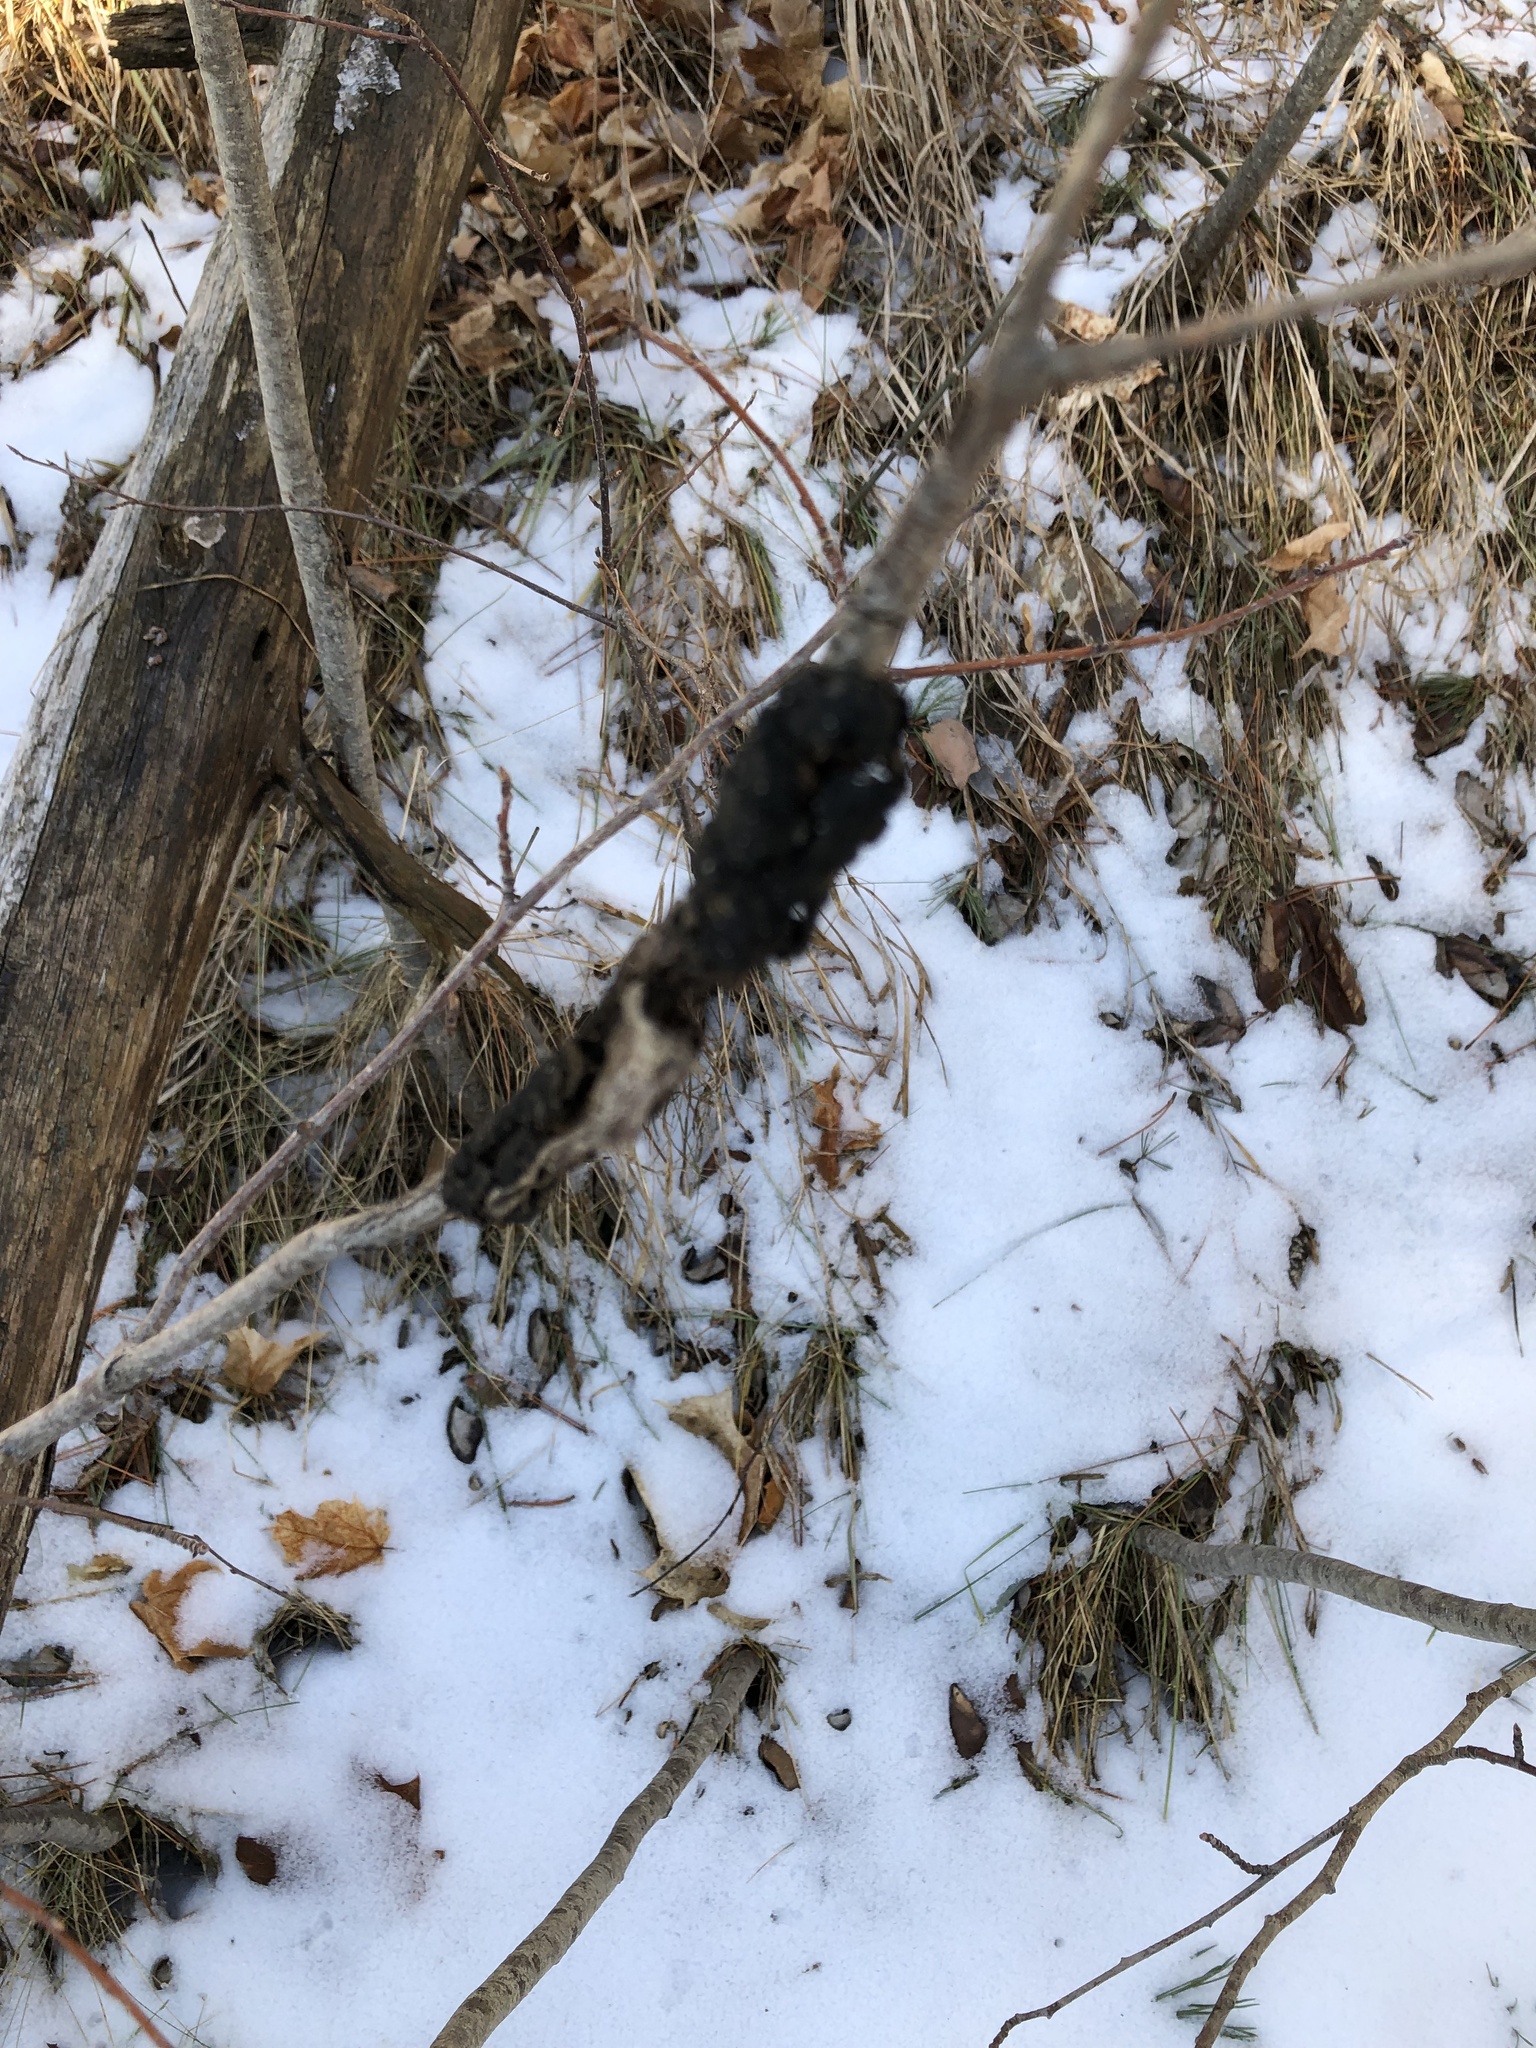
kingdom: Fungi
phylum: Ascomycota
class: Dothideomycetes
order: Venturiales
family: Venturiaceae
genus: Apiosporina
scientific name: Apiosporina morbosa
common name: Black knot
